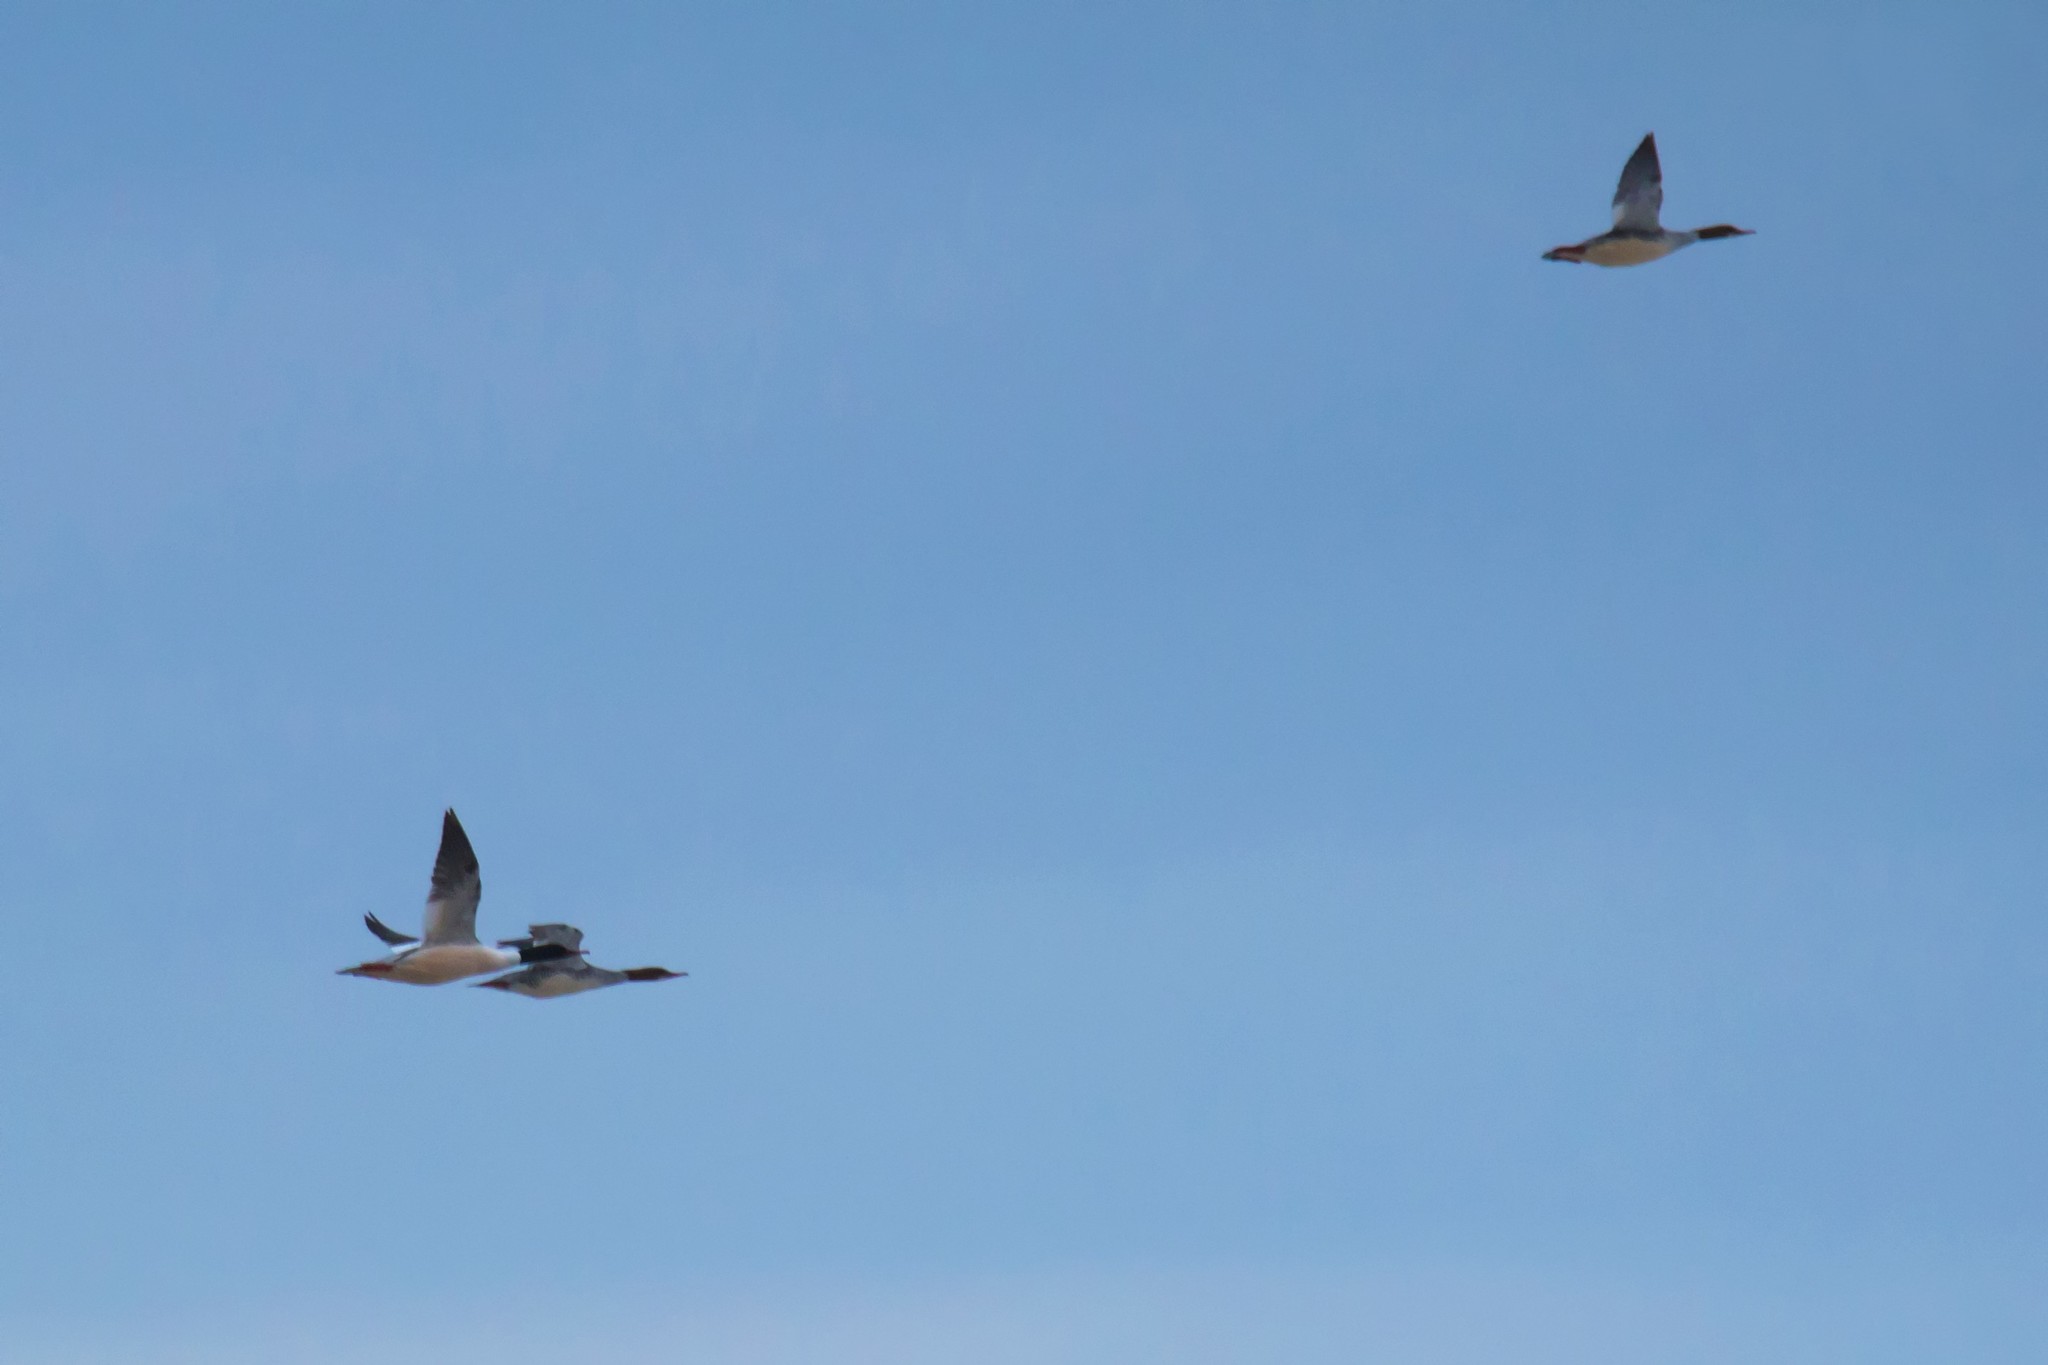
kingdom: Animalia
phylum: Chordata
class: Aves
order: Anseriformes
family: Anatidae
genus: Mergus
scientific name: Mergus merganser
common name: Common merganser
